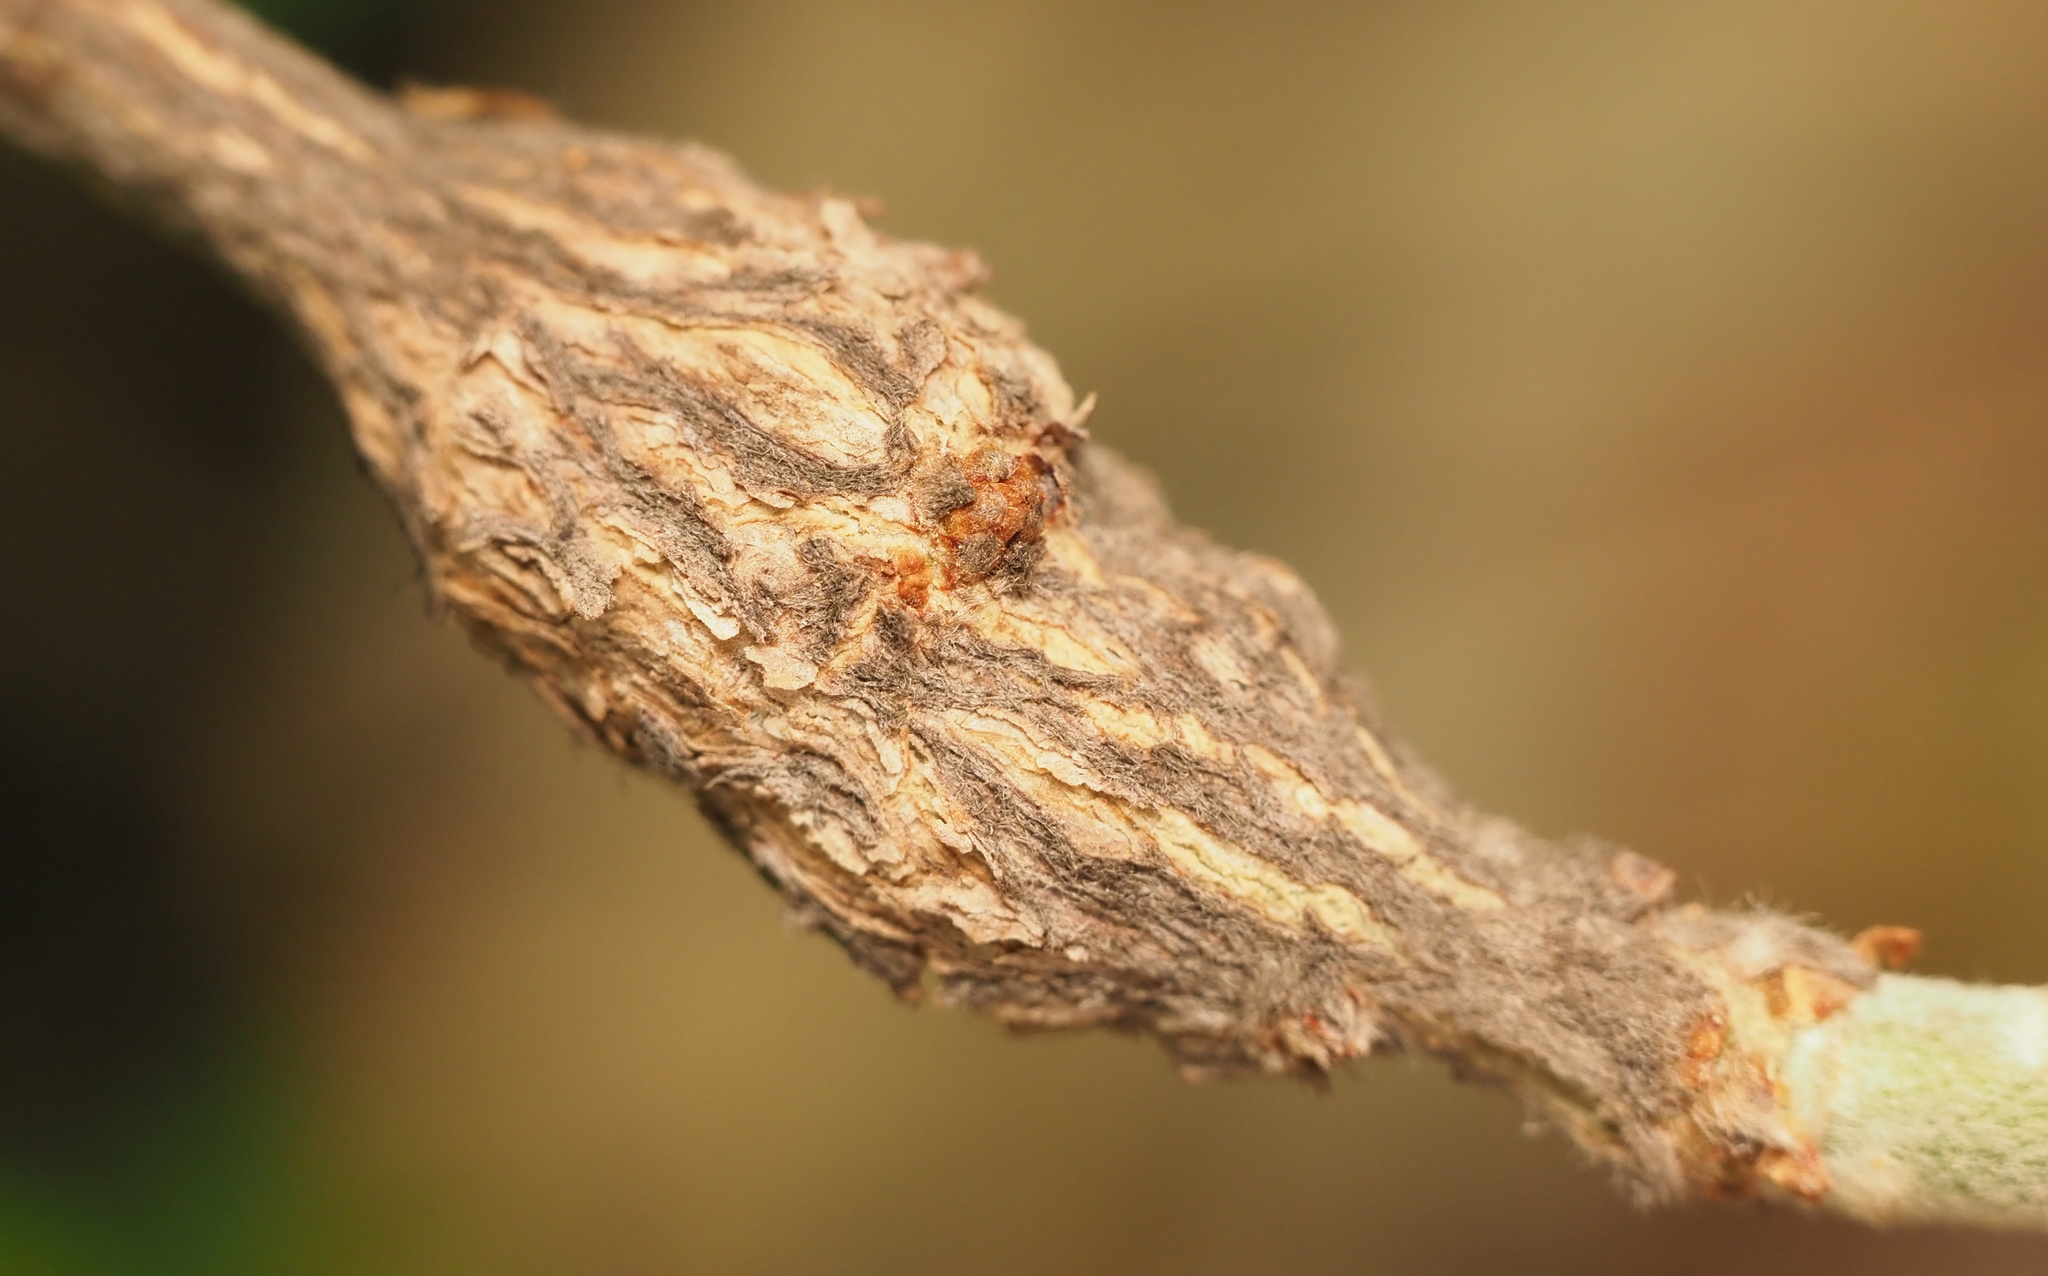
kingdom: Animalia
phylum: Arthropoda
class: Insecta
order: Diptera
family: Cecidomyiidae
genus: Bruggmanniella
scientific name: Bruggmanniella bumeliae
